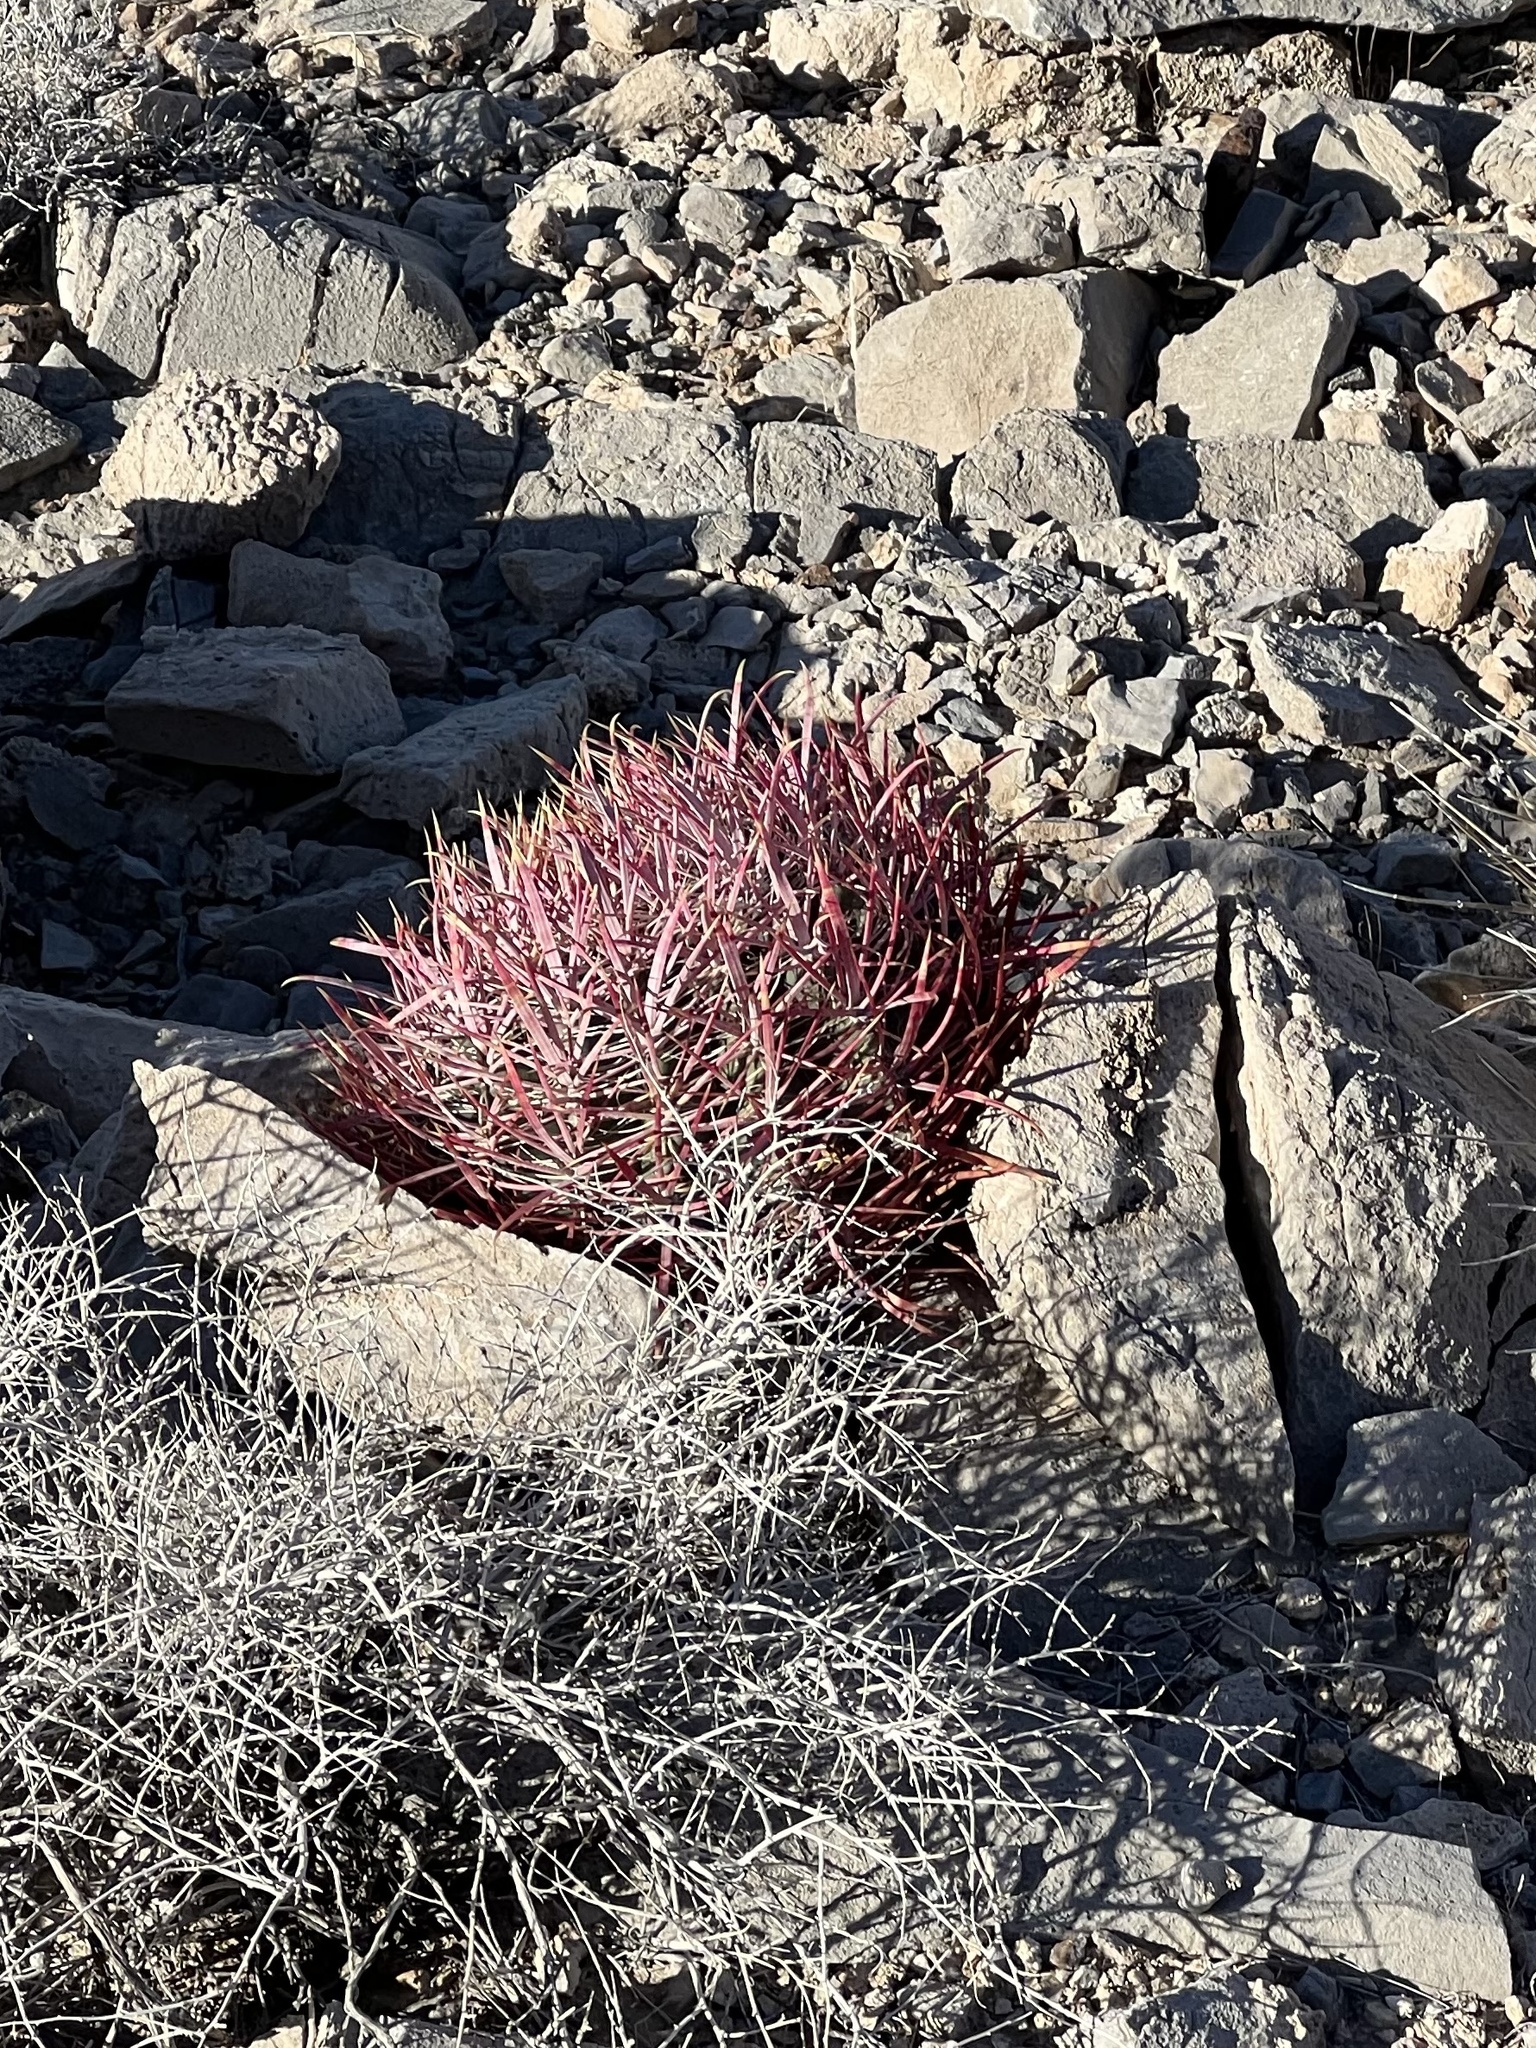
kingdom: Plantae
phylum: Tracheophyta
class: Magnoliopsida
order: Caryophyllales
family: Cactaceae
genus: Ferocactus
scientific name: Ferocactus cylindraceus
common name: California barrel cactus
